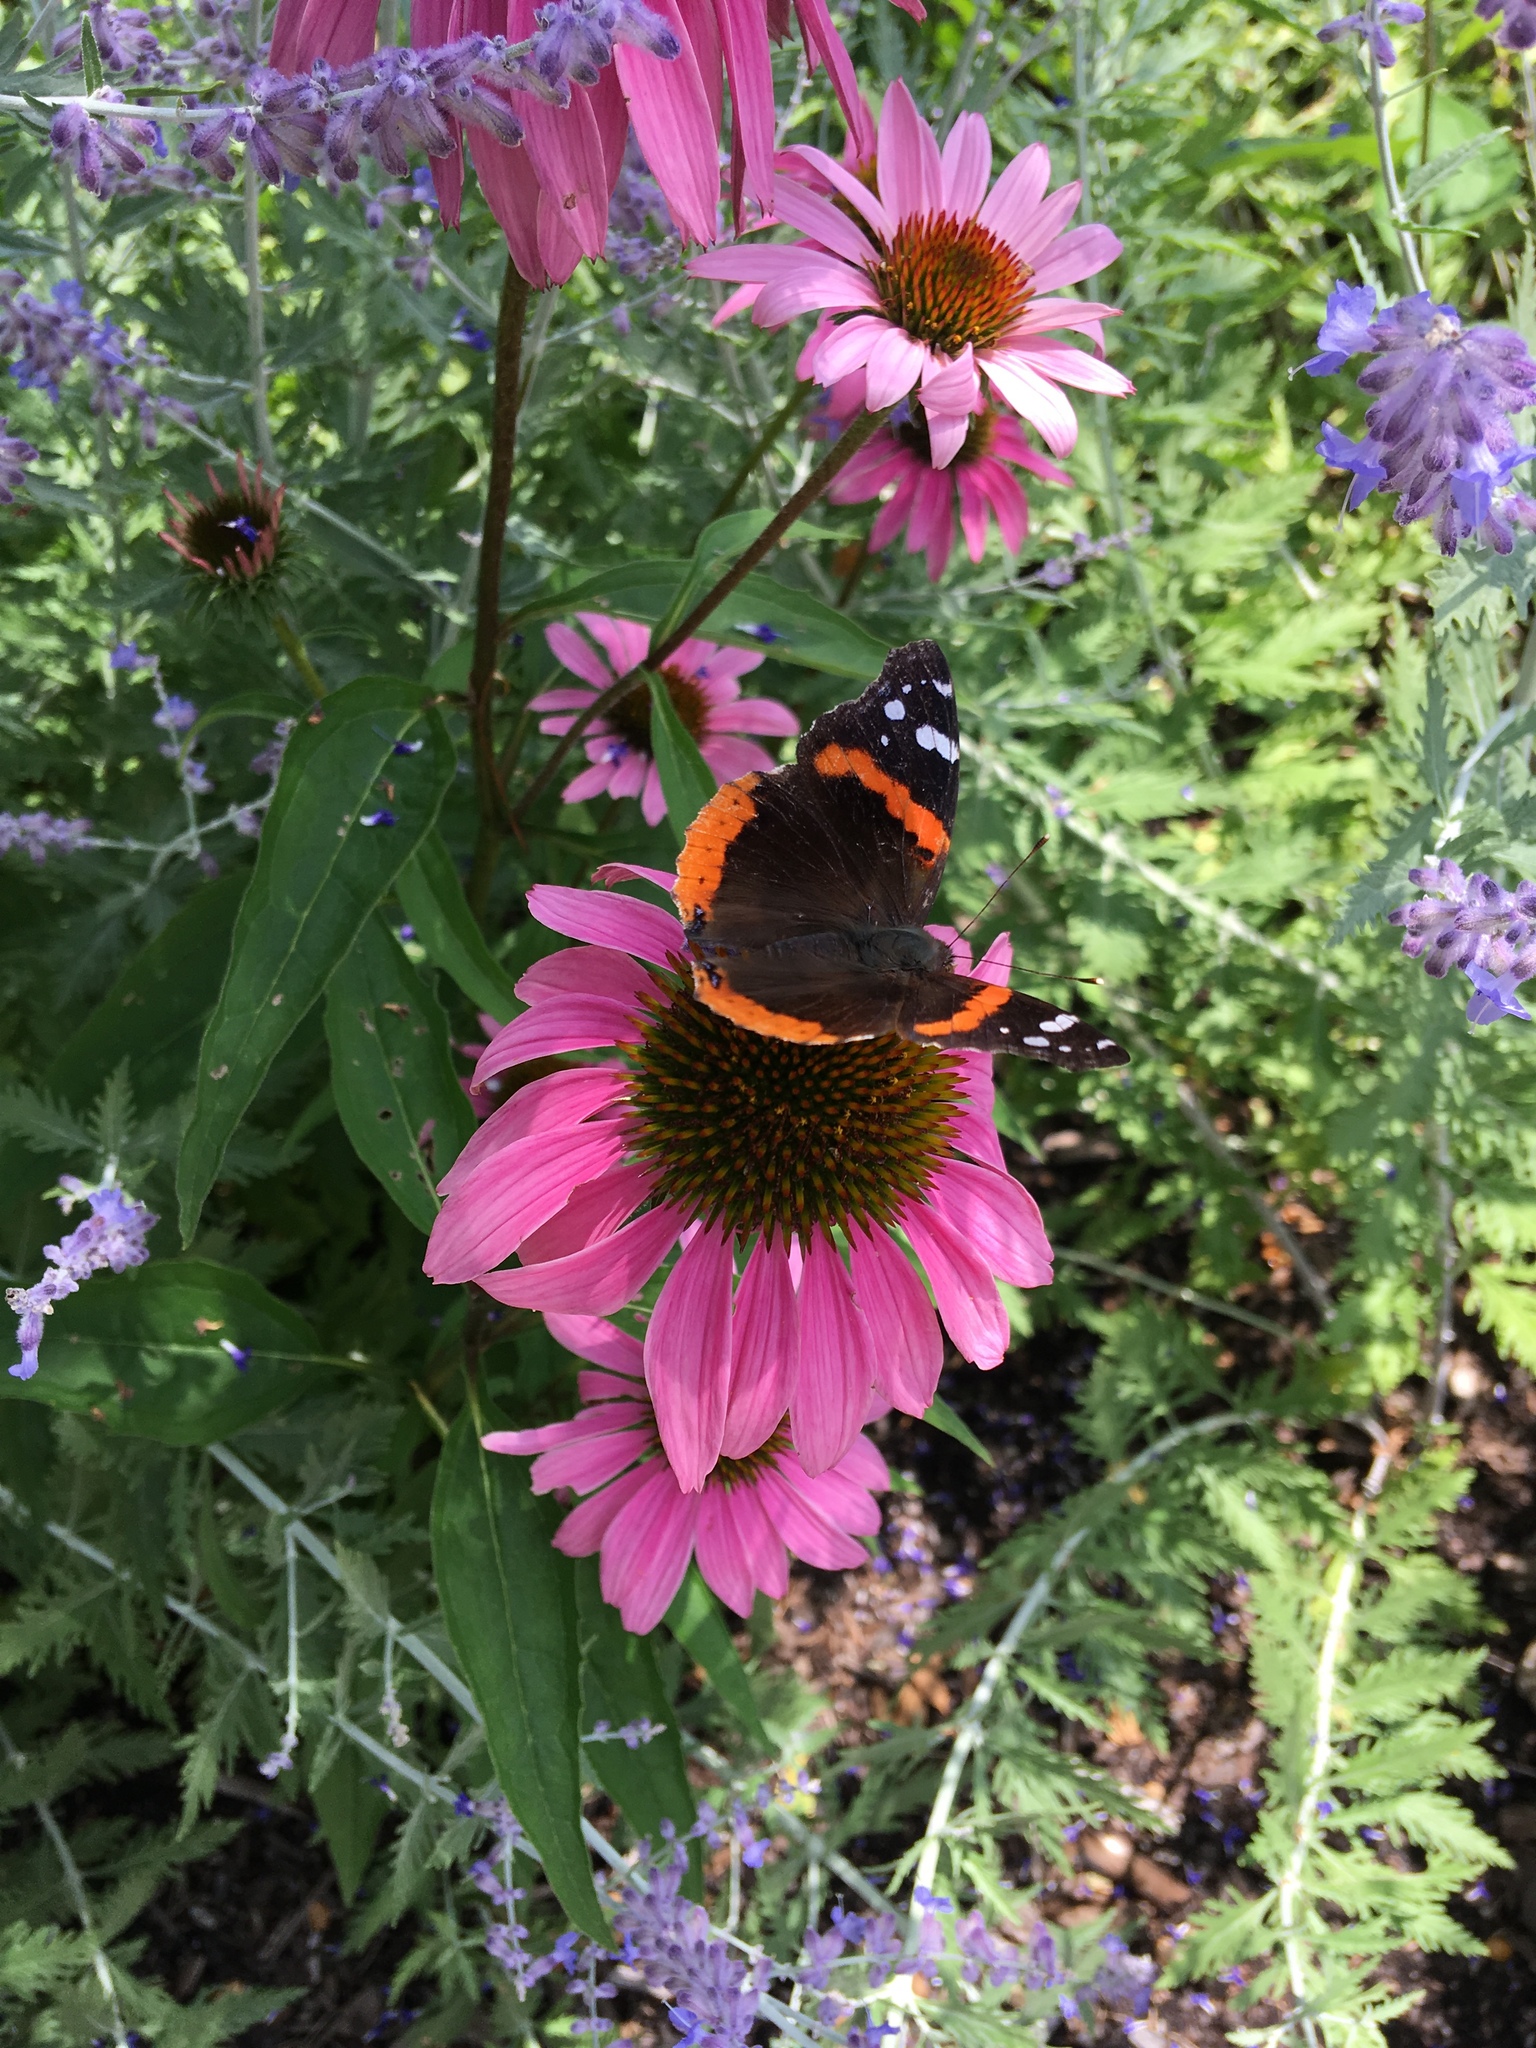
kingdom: Animalia
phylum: Arthropoda
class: Insecta
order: Lepidoptera
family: Nymphalidae
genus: Vanessa
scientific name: Vanessa atalanta
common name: Red admiral
